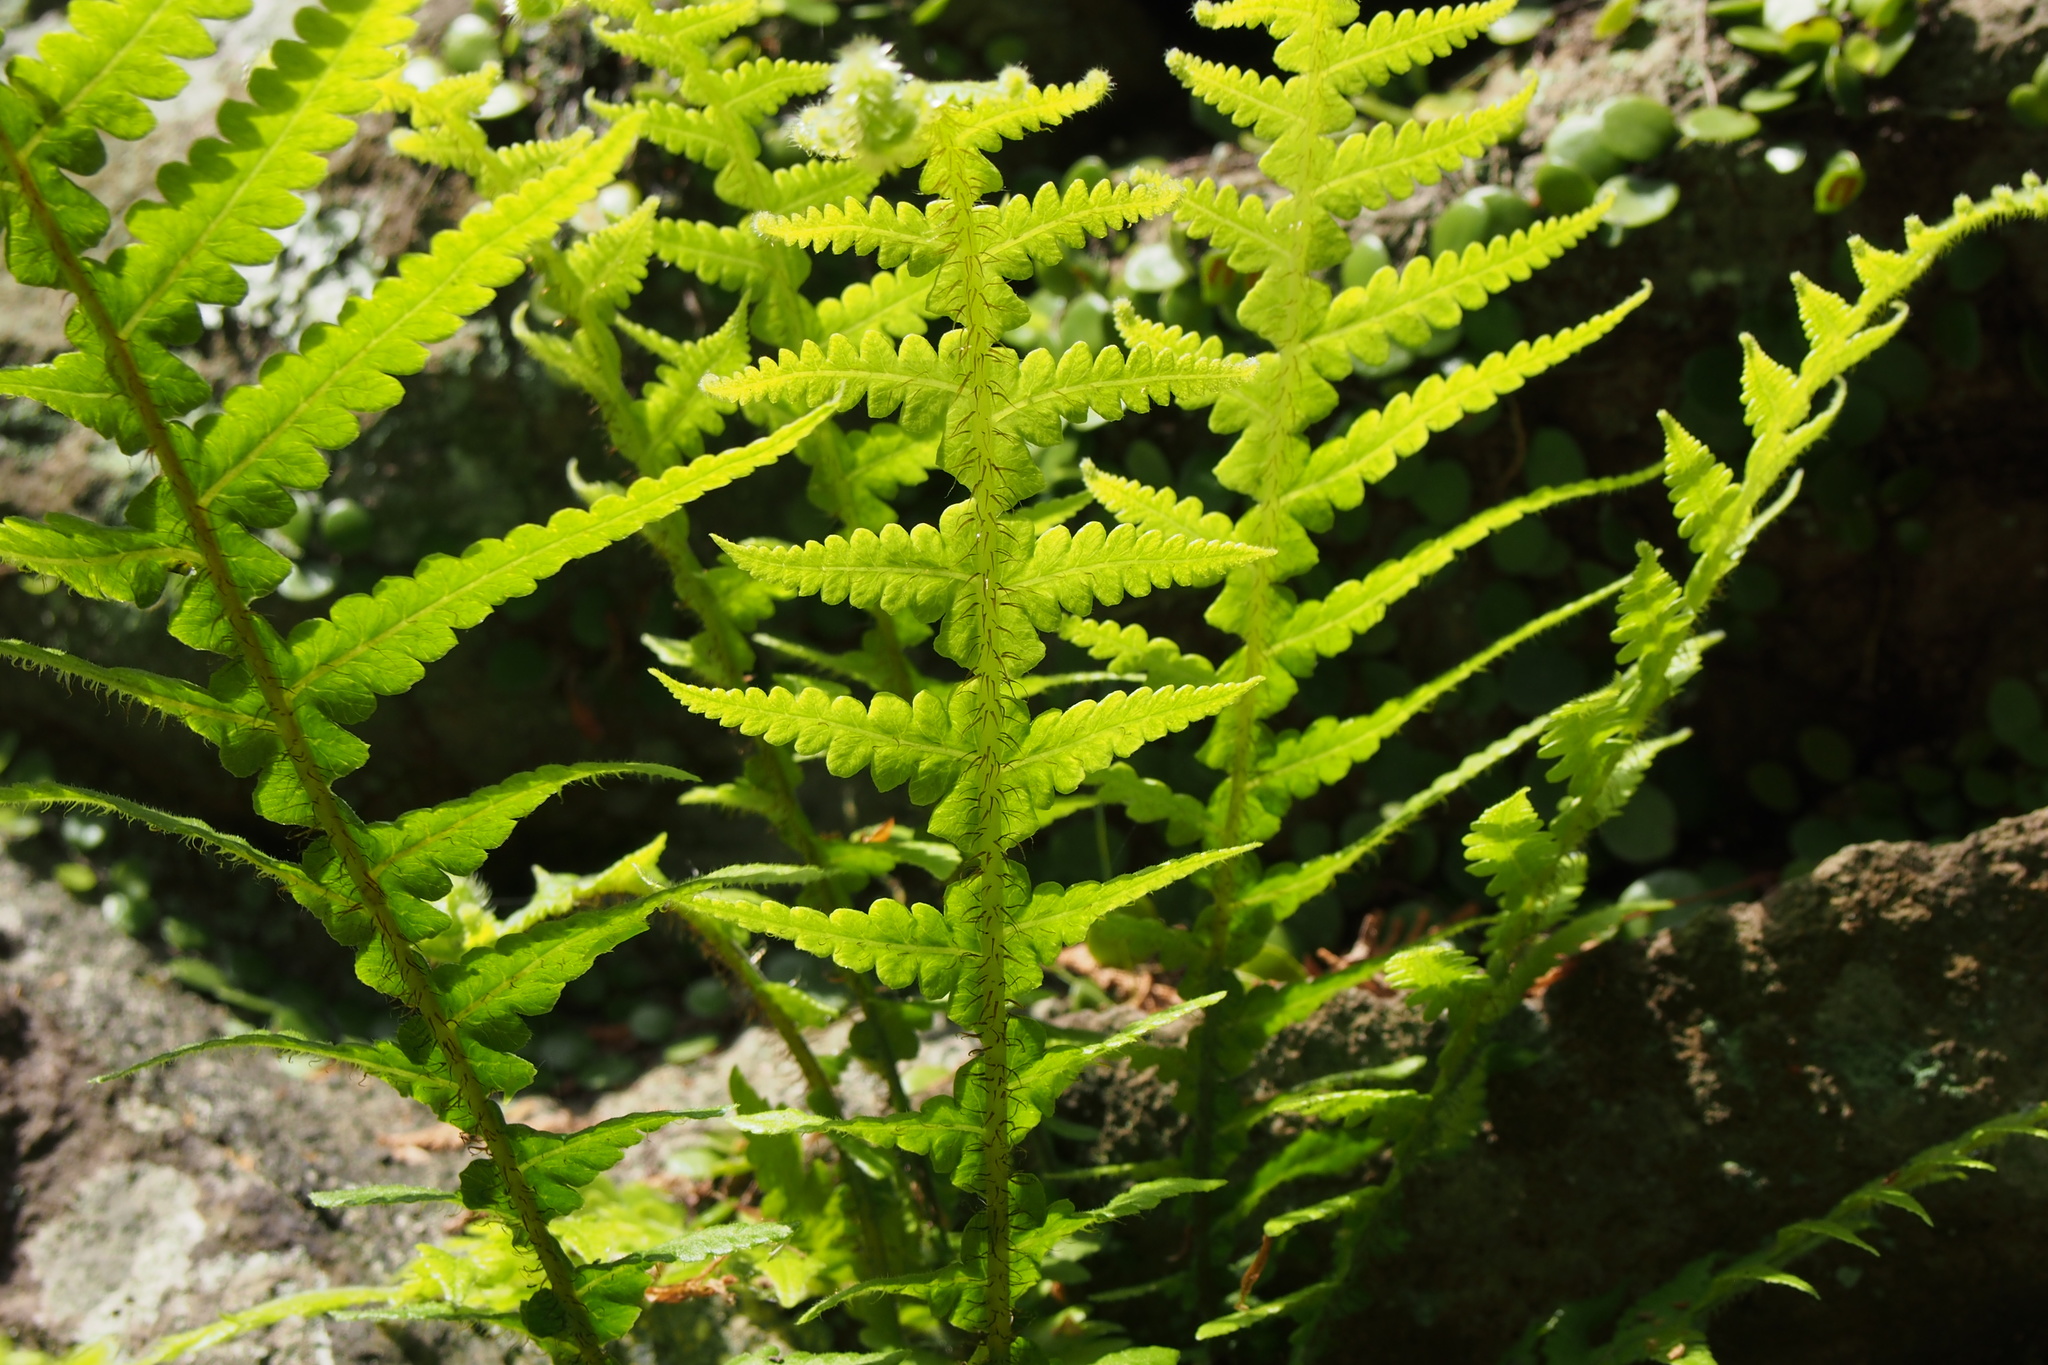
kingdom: Plantae
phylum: Tracheophyta
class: Polypodiopsida
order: Polypodiales
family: Thelypteridaceae
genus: Phegopteris
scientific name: Phegopteris decursive-pinnata
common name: Japanese beech fern
